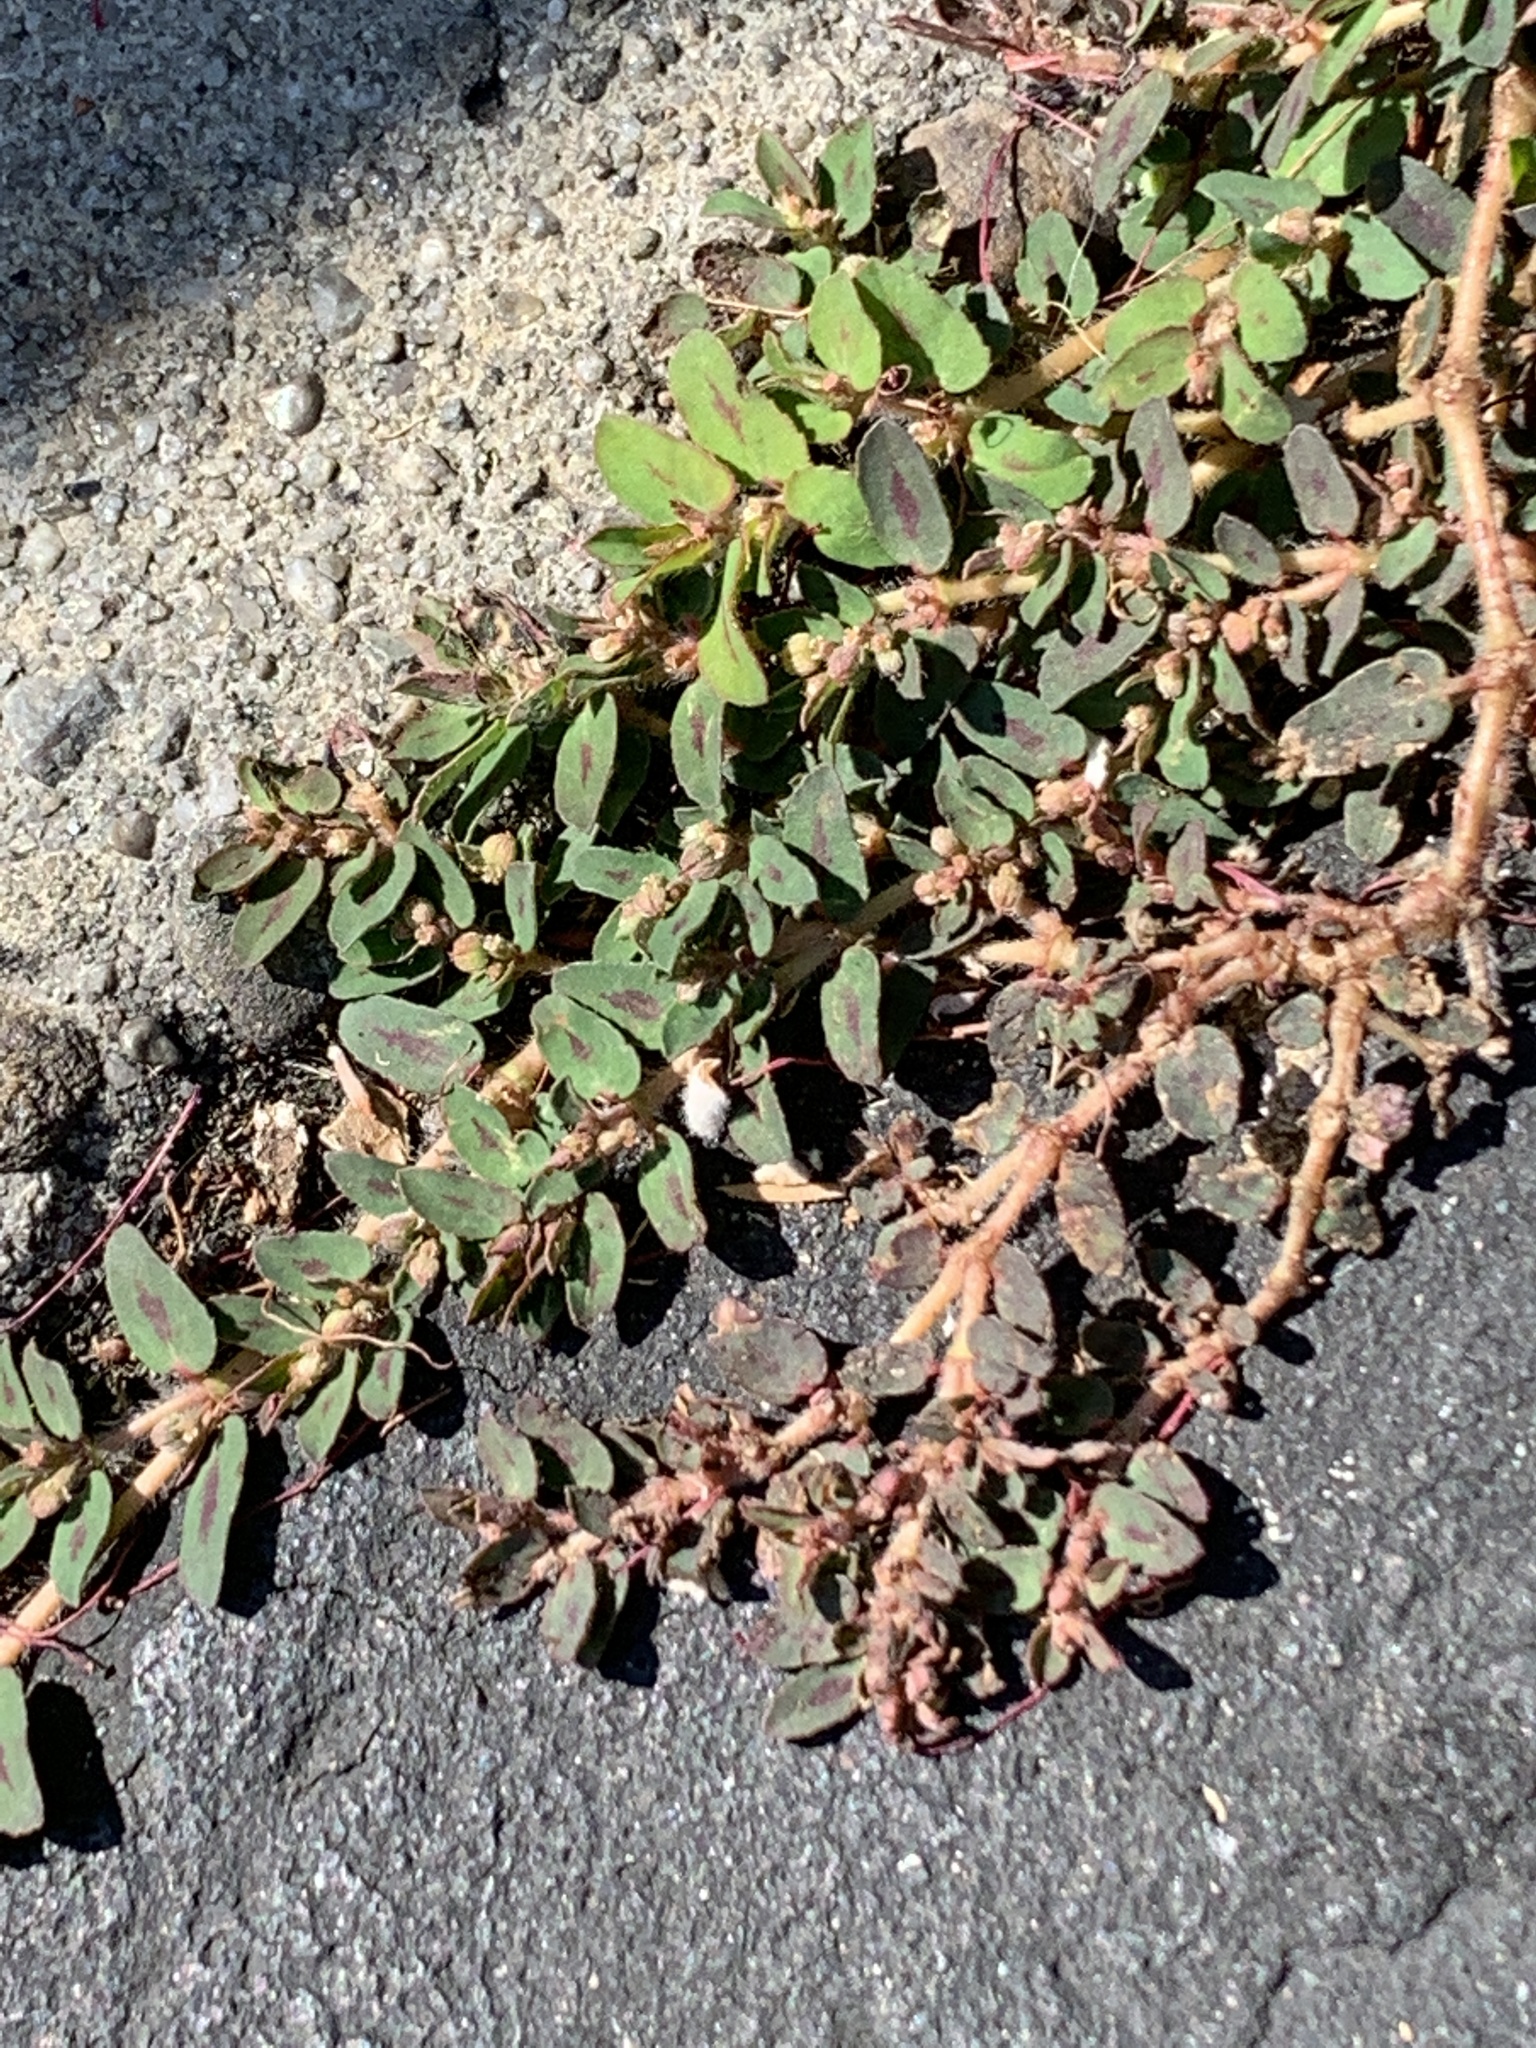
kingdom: Plantae
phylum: Tracheophyta
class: Magnoliopsida
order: Malpighiales
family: Euphorbiaceae
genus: Euphorbia
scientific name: Euphorbia maculata
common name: Spotted spurge
